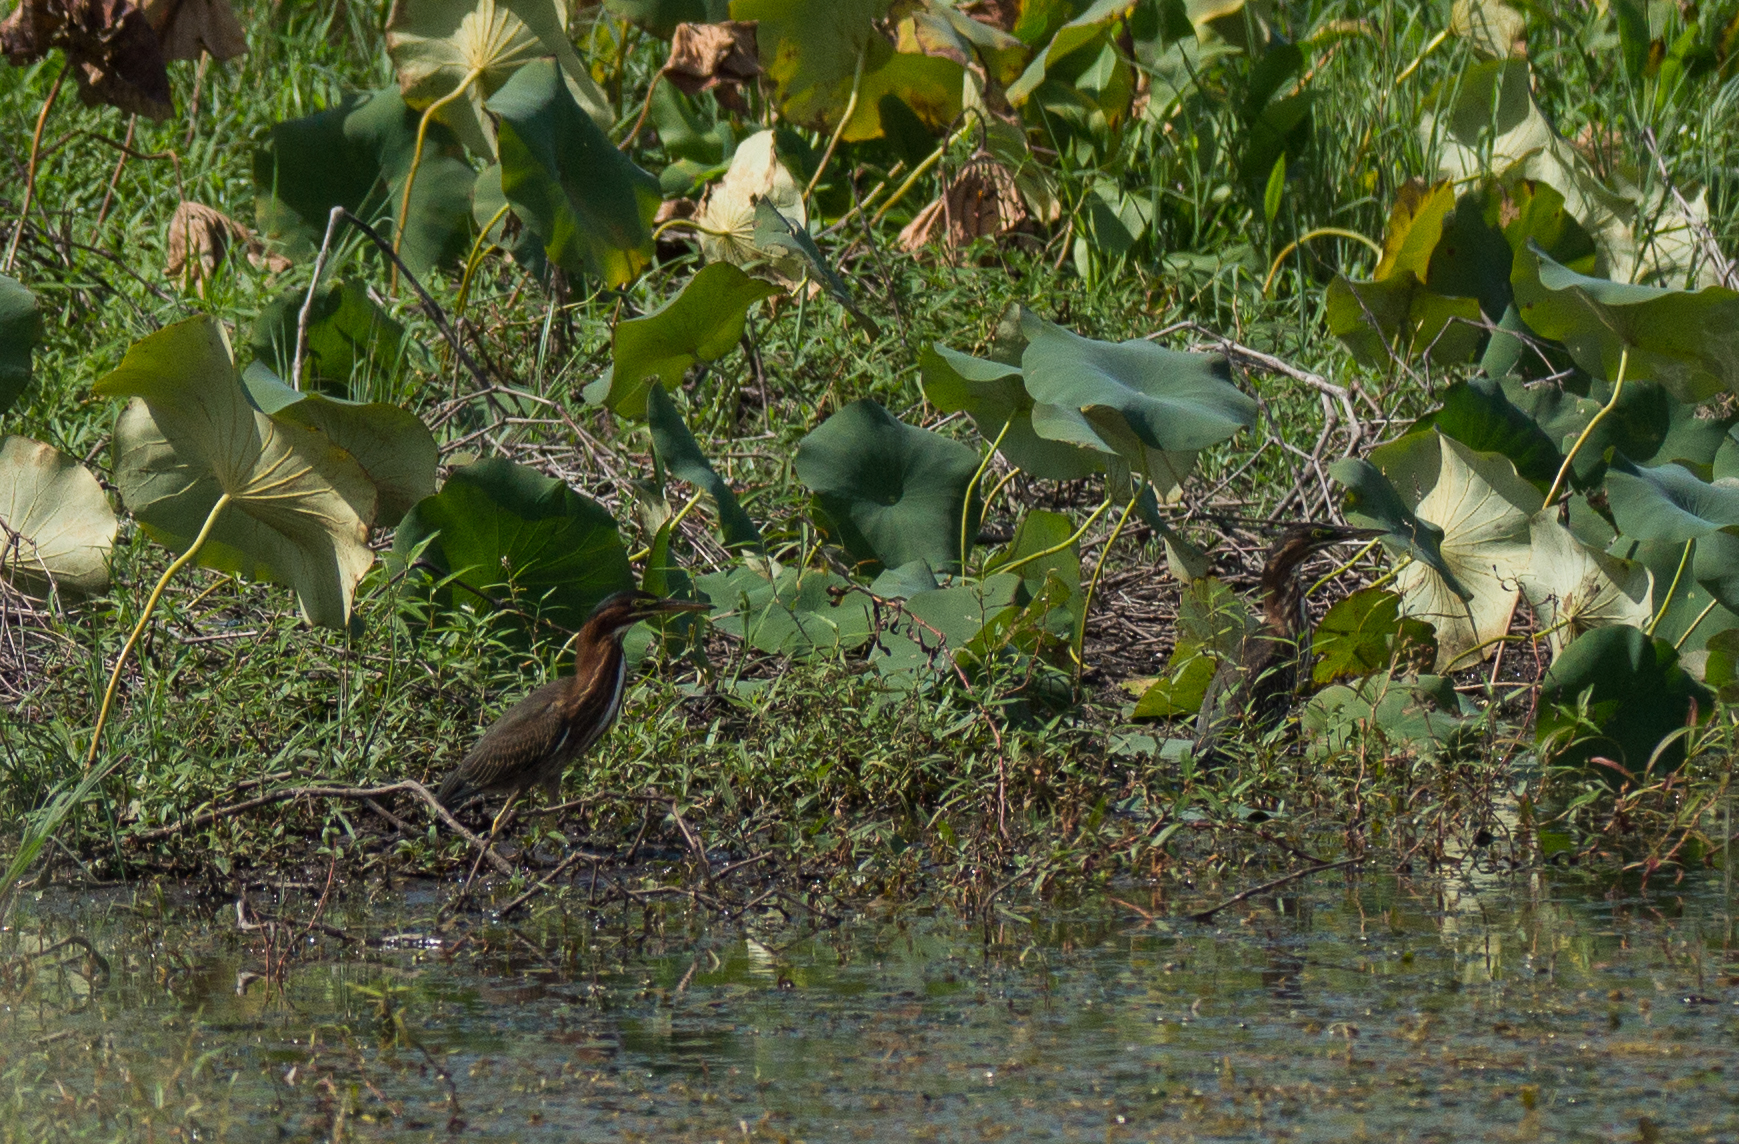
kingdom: Animalia
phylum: Chordata
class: Aves
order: Pelecaniformes
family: Ardeidae
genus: Butorides
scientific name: Butorides virescens
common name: Green heron
